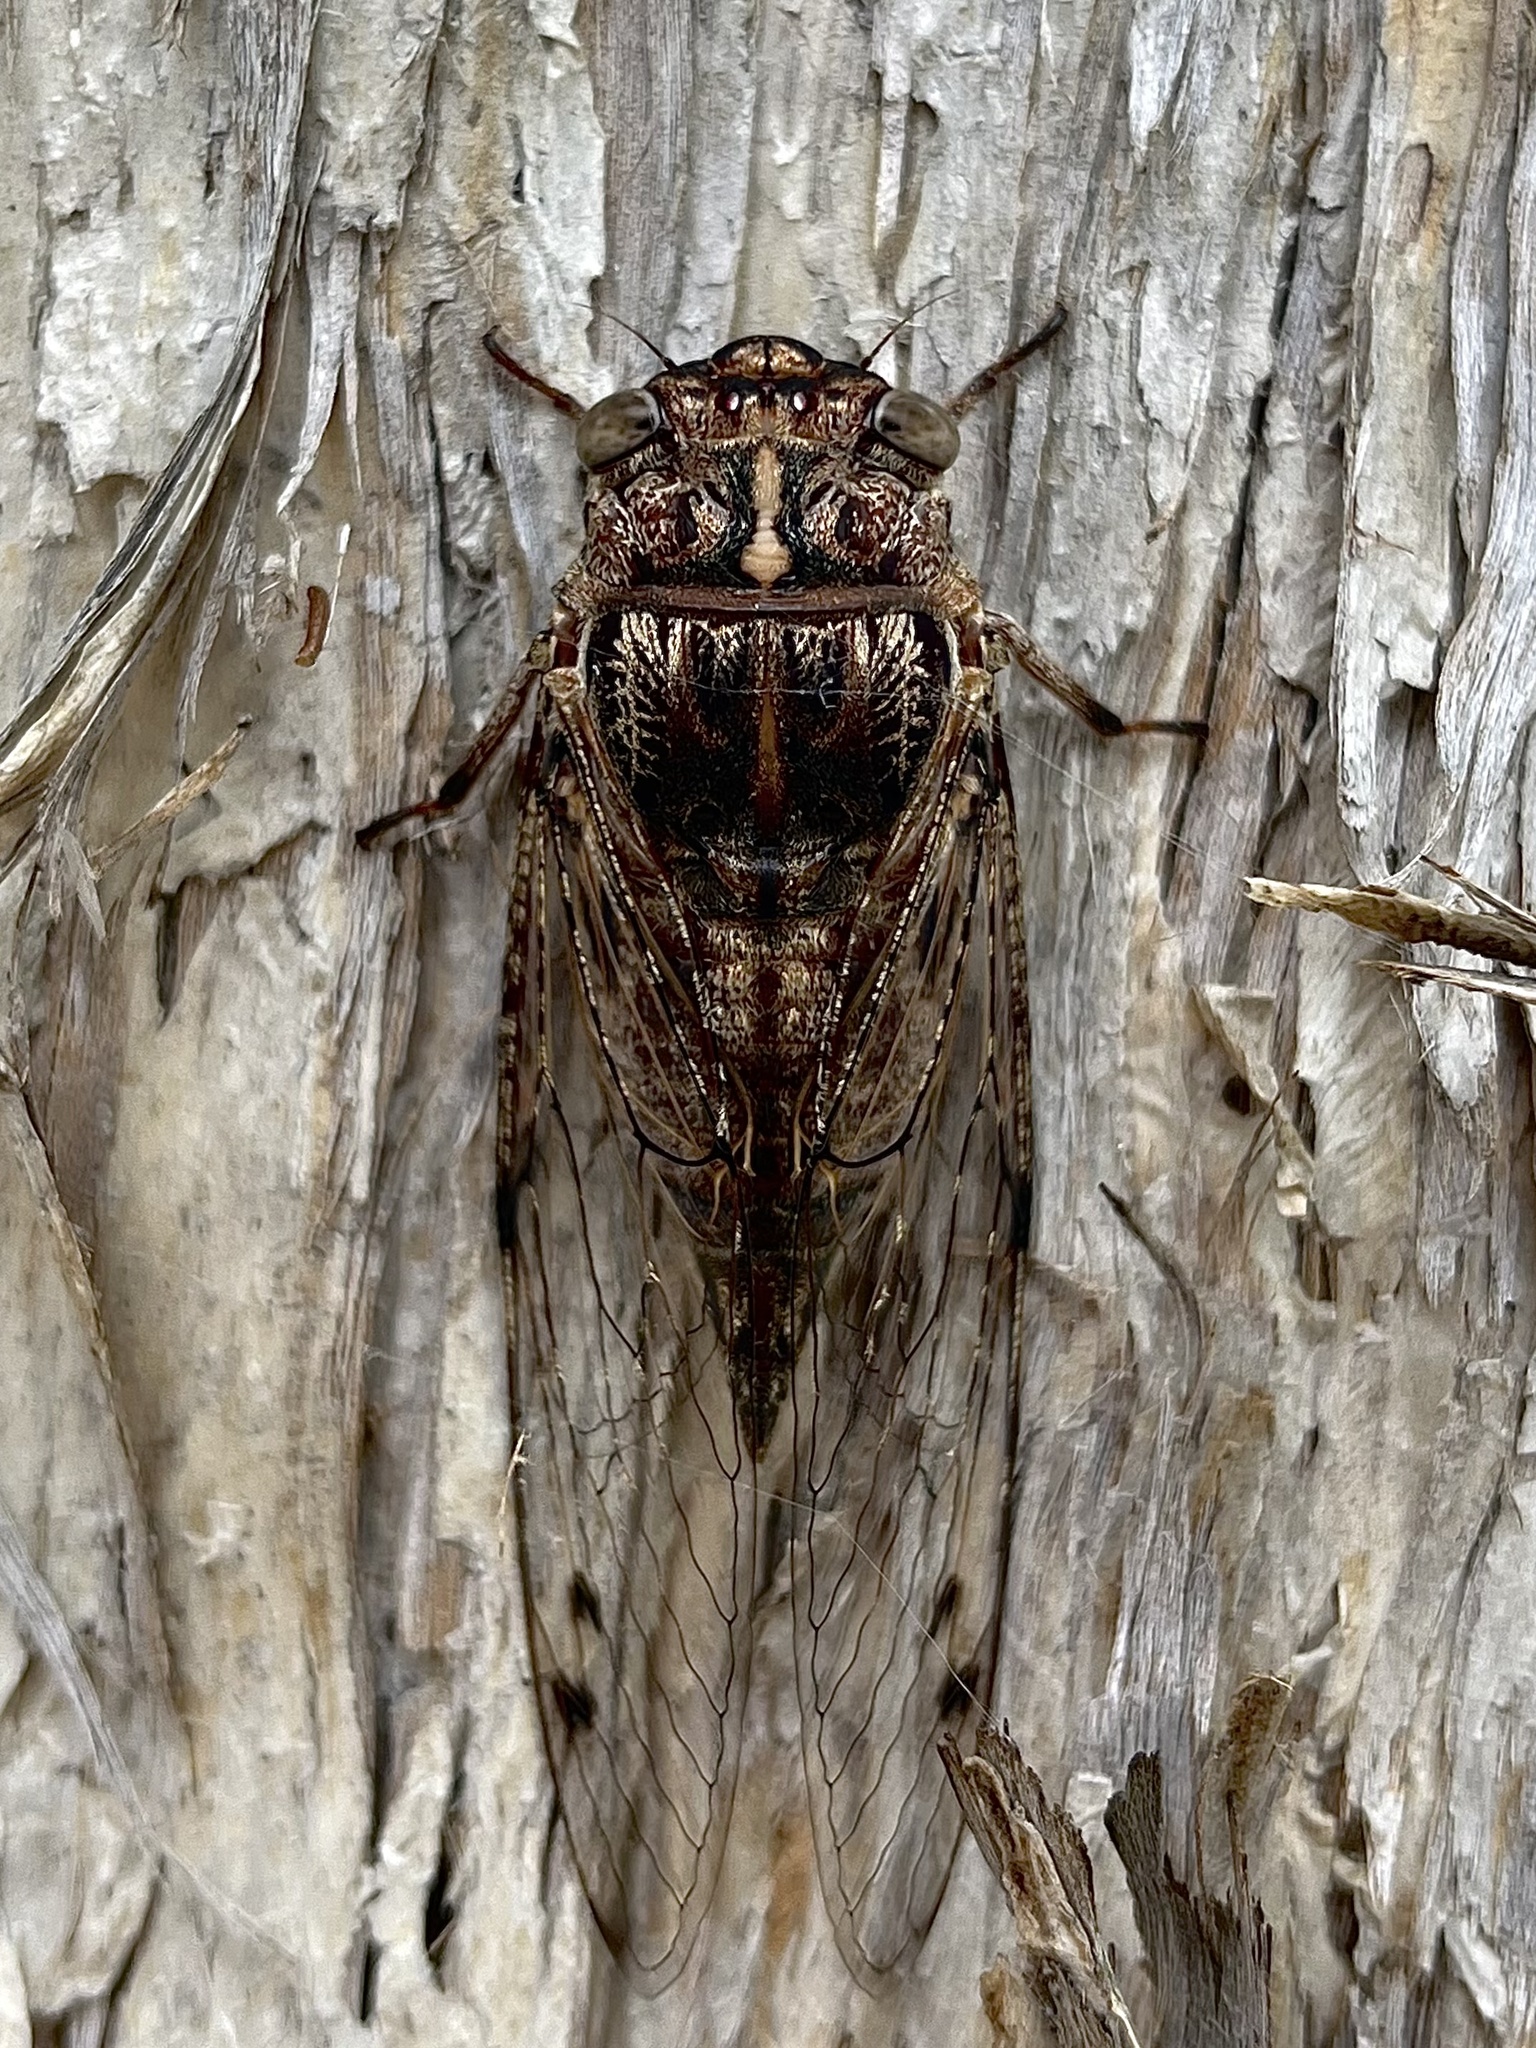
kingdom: Animalia
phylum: Arthropoda
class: Insecta
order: Hemiptera
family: Cicadidae
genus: Aleeta
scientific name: Aleeta curvicosta
